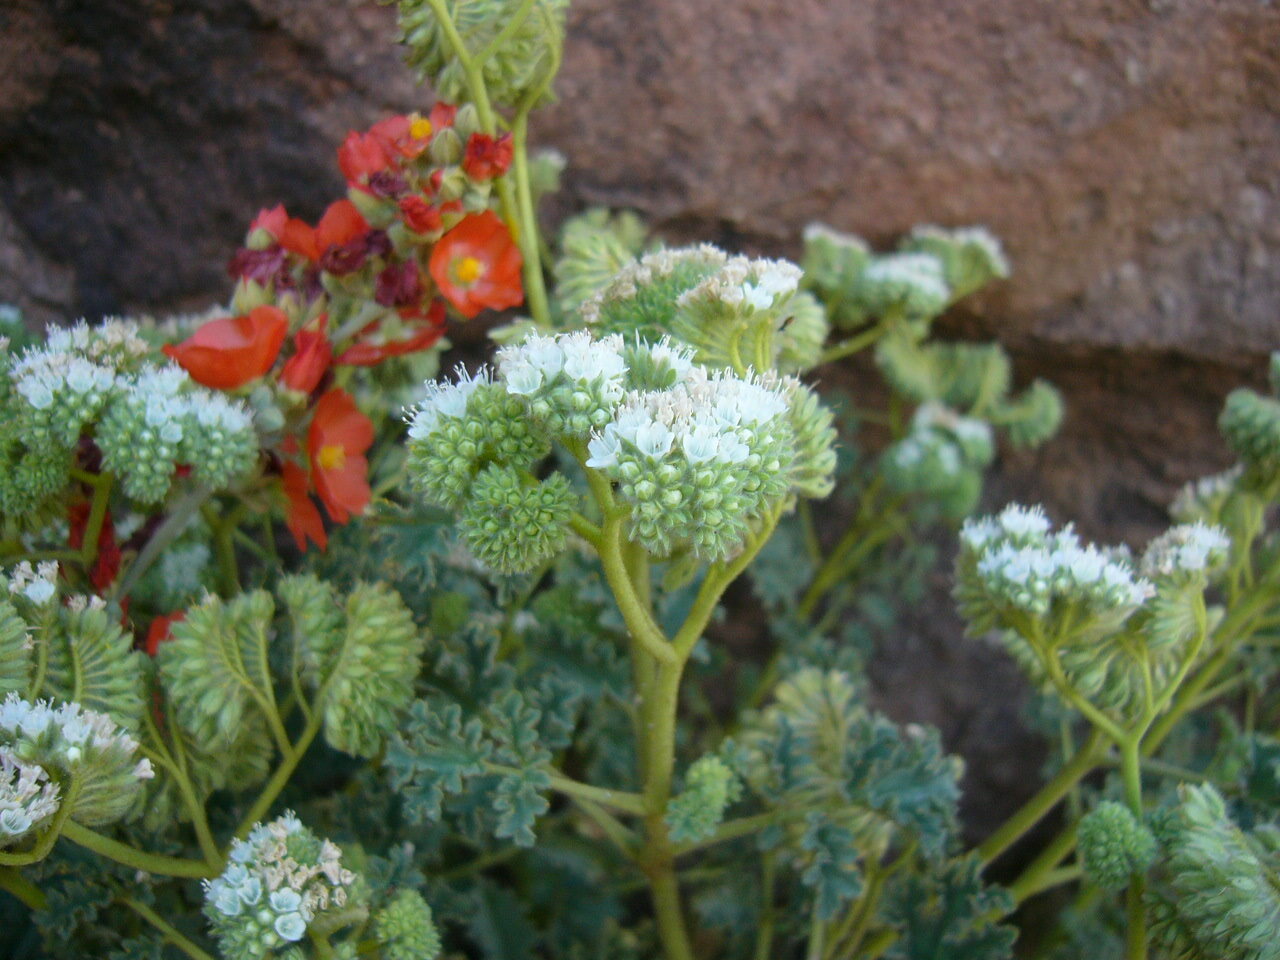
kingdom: Plantae
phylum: Tracheophyta
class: Magnoliopsida
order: Boraginales
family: Hydrophyllaceae
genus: Phacelia
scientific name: Phacelia pedicellata
